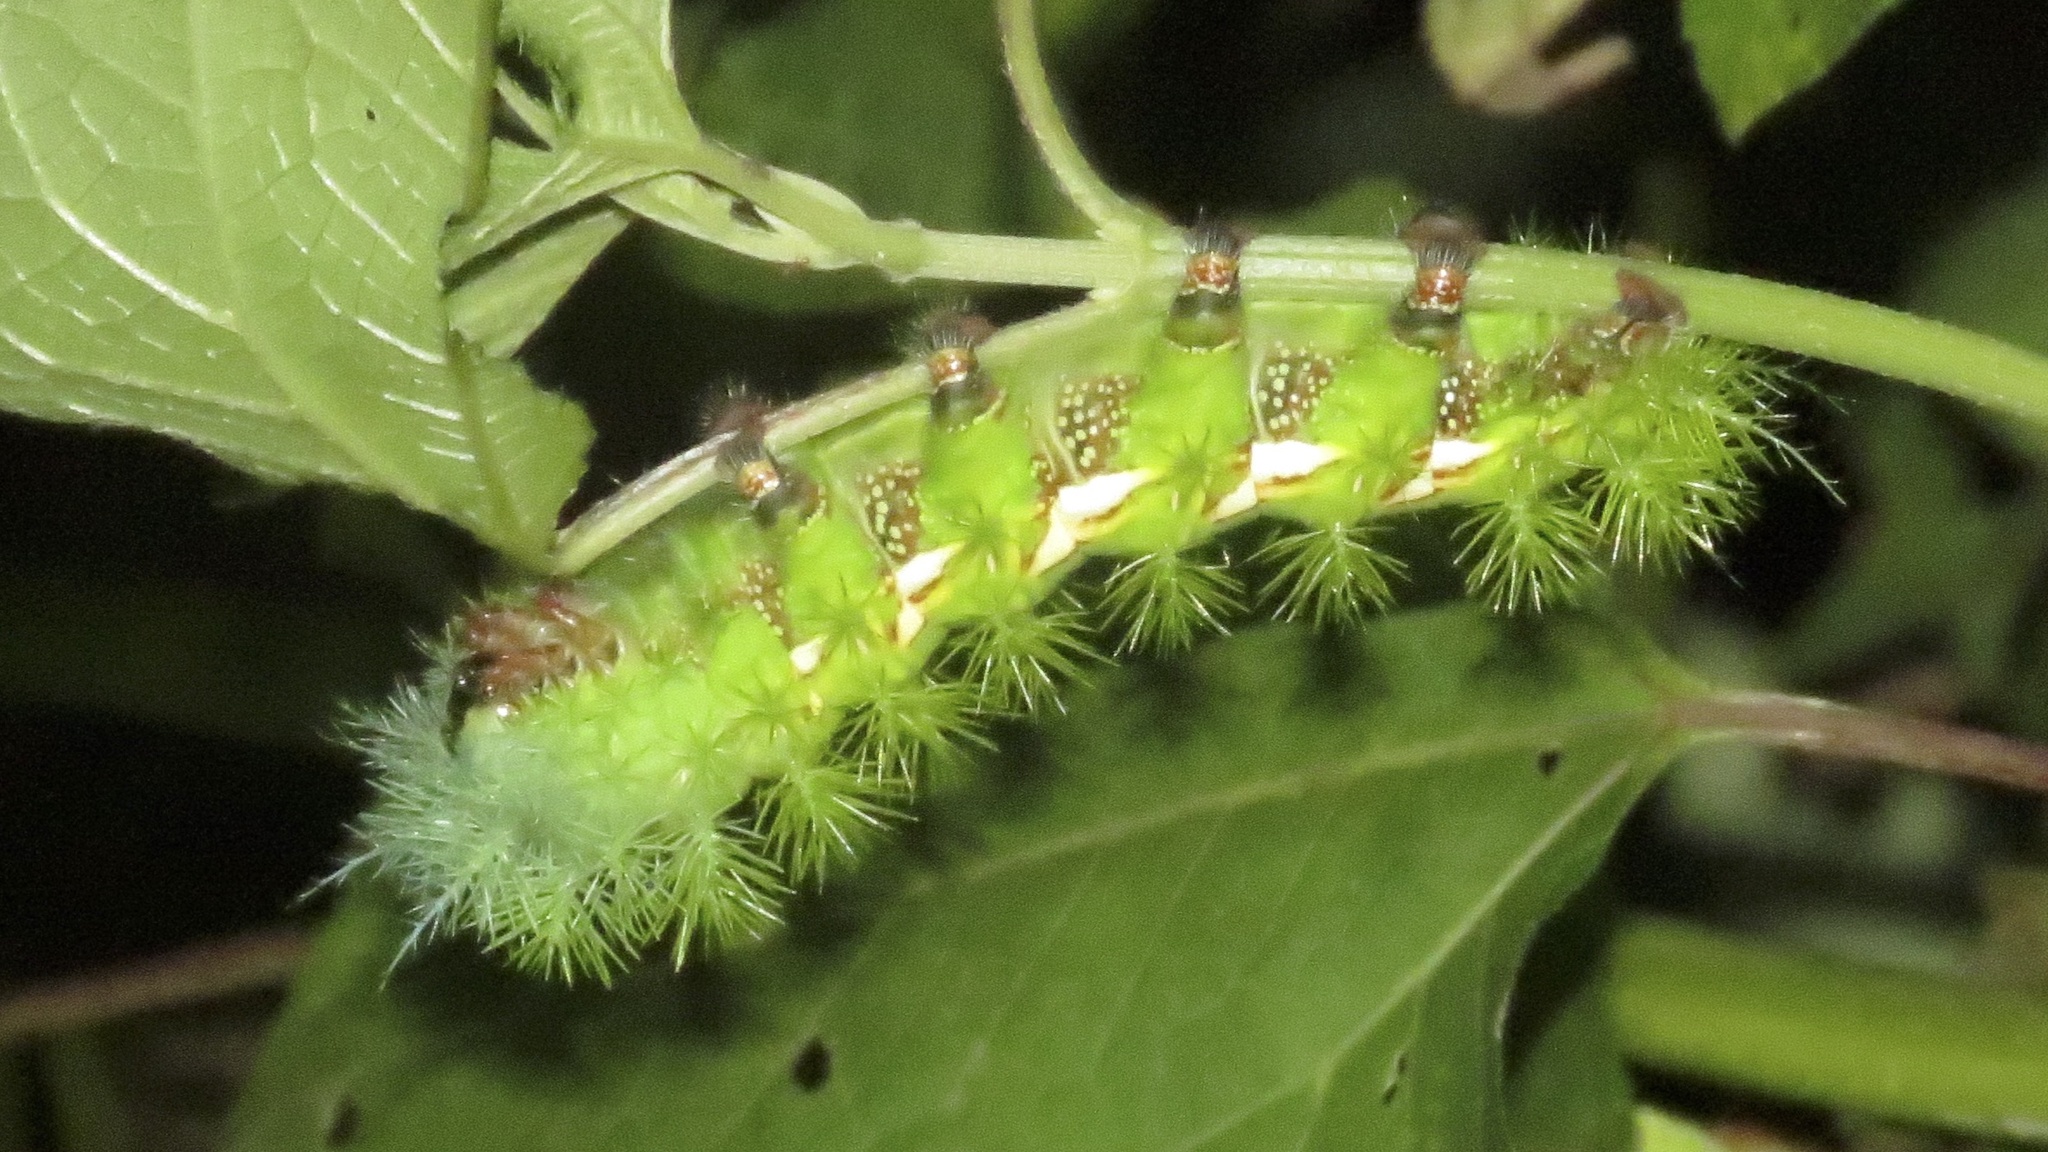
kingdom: Animalia
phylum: Arthropoda
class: Insecta
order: Lepidoptera
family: Saturniidae
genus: Automeris
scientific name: Automeris zugana
